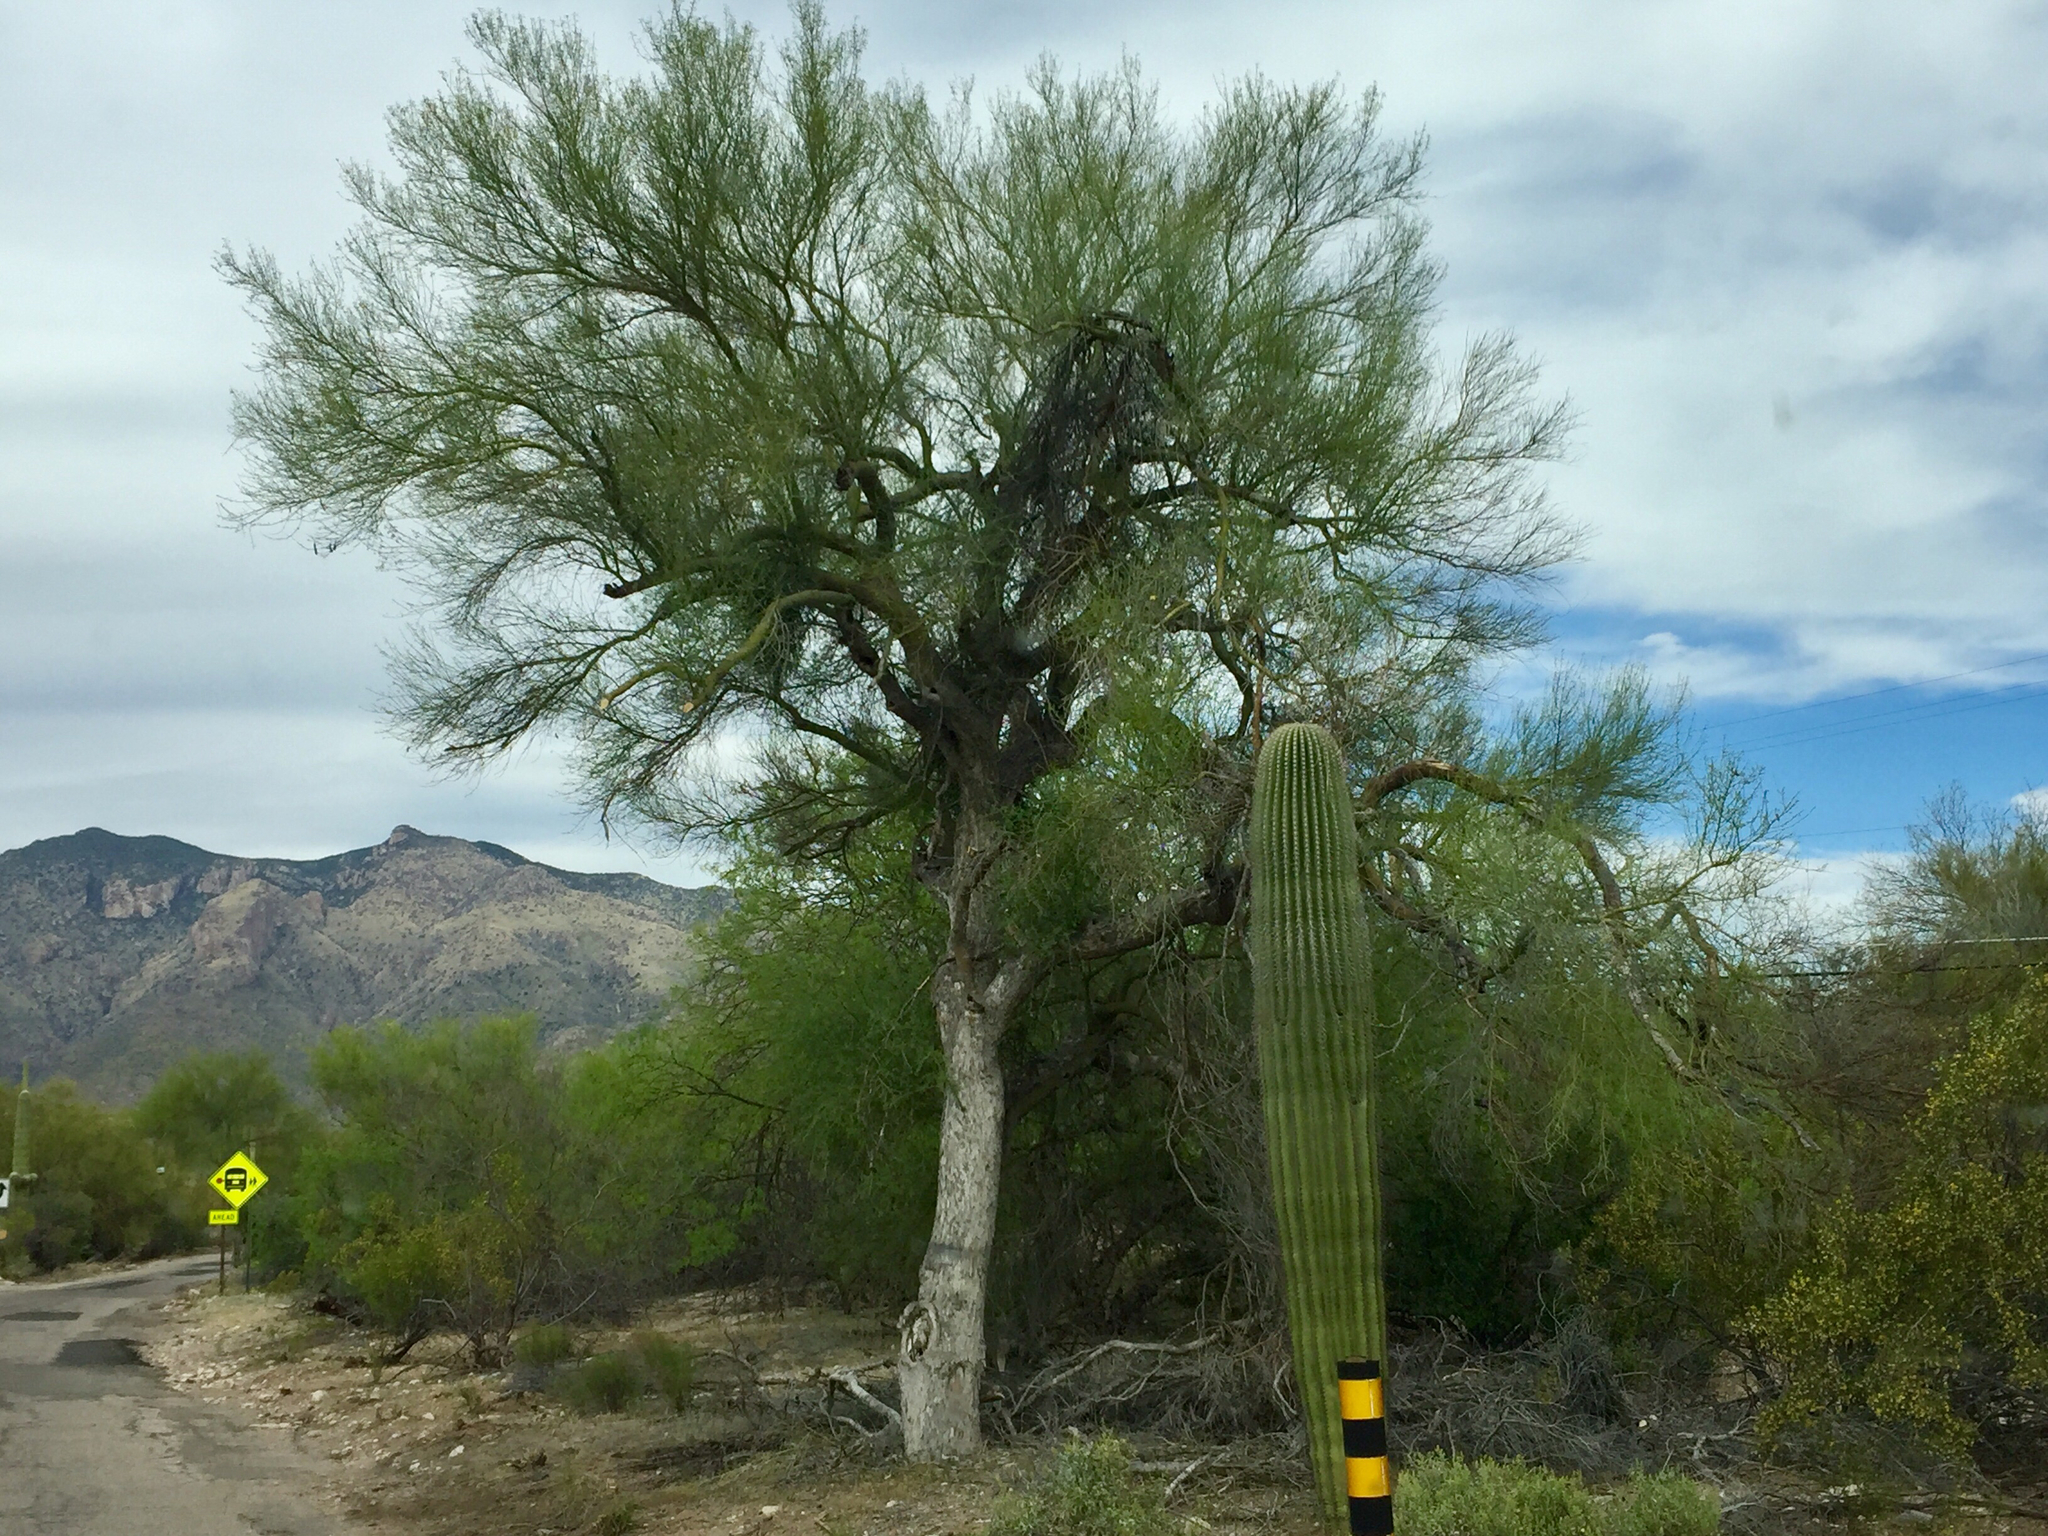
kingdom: Plantae
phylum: Tracheophyta
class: Magnoliopsida
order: Caryophyllales
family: Cactaceae
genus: Carnegiea
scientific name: Carnegiea gigantea
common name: Saguaro
